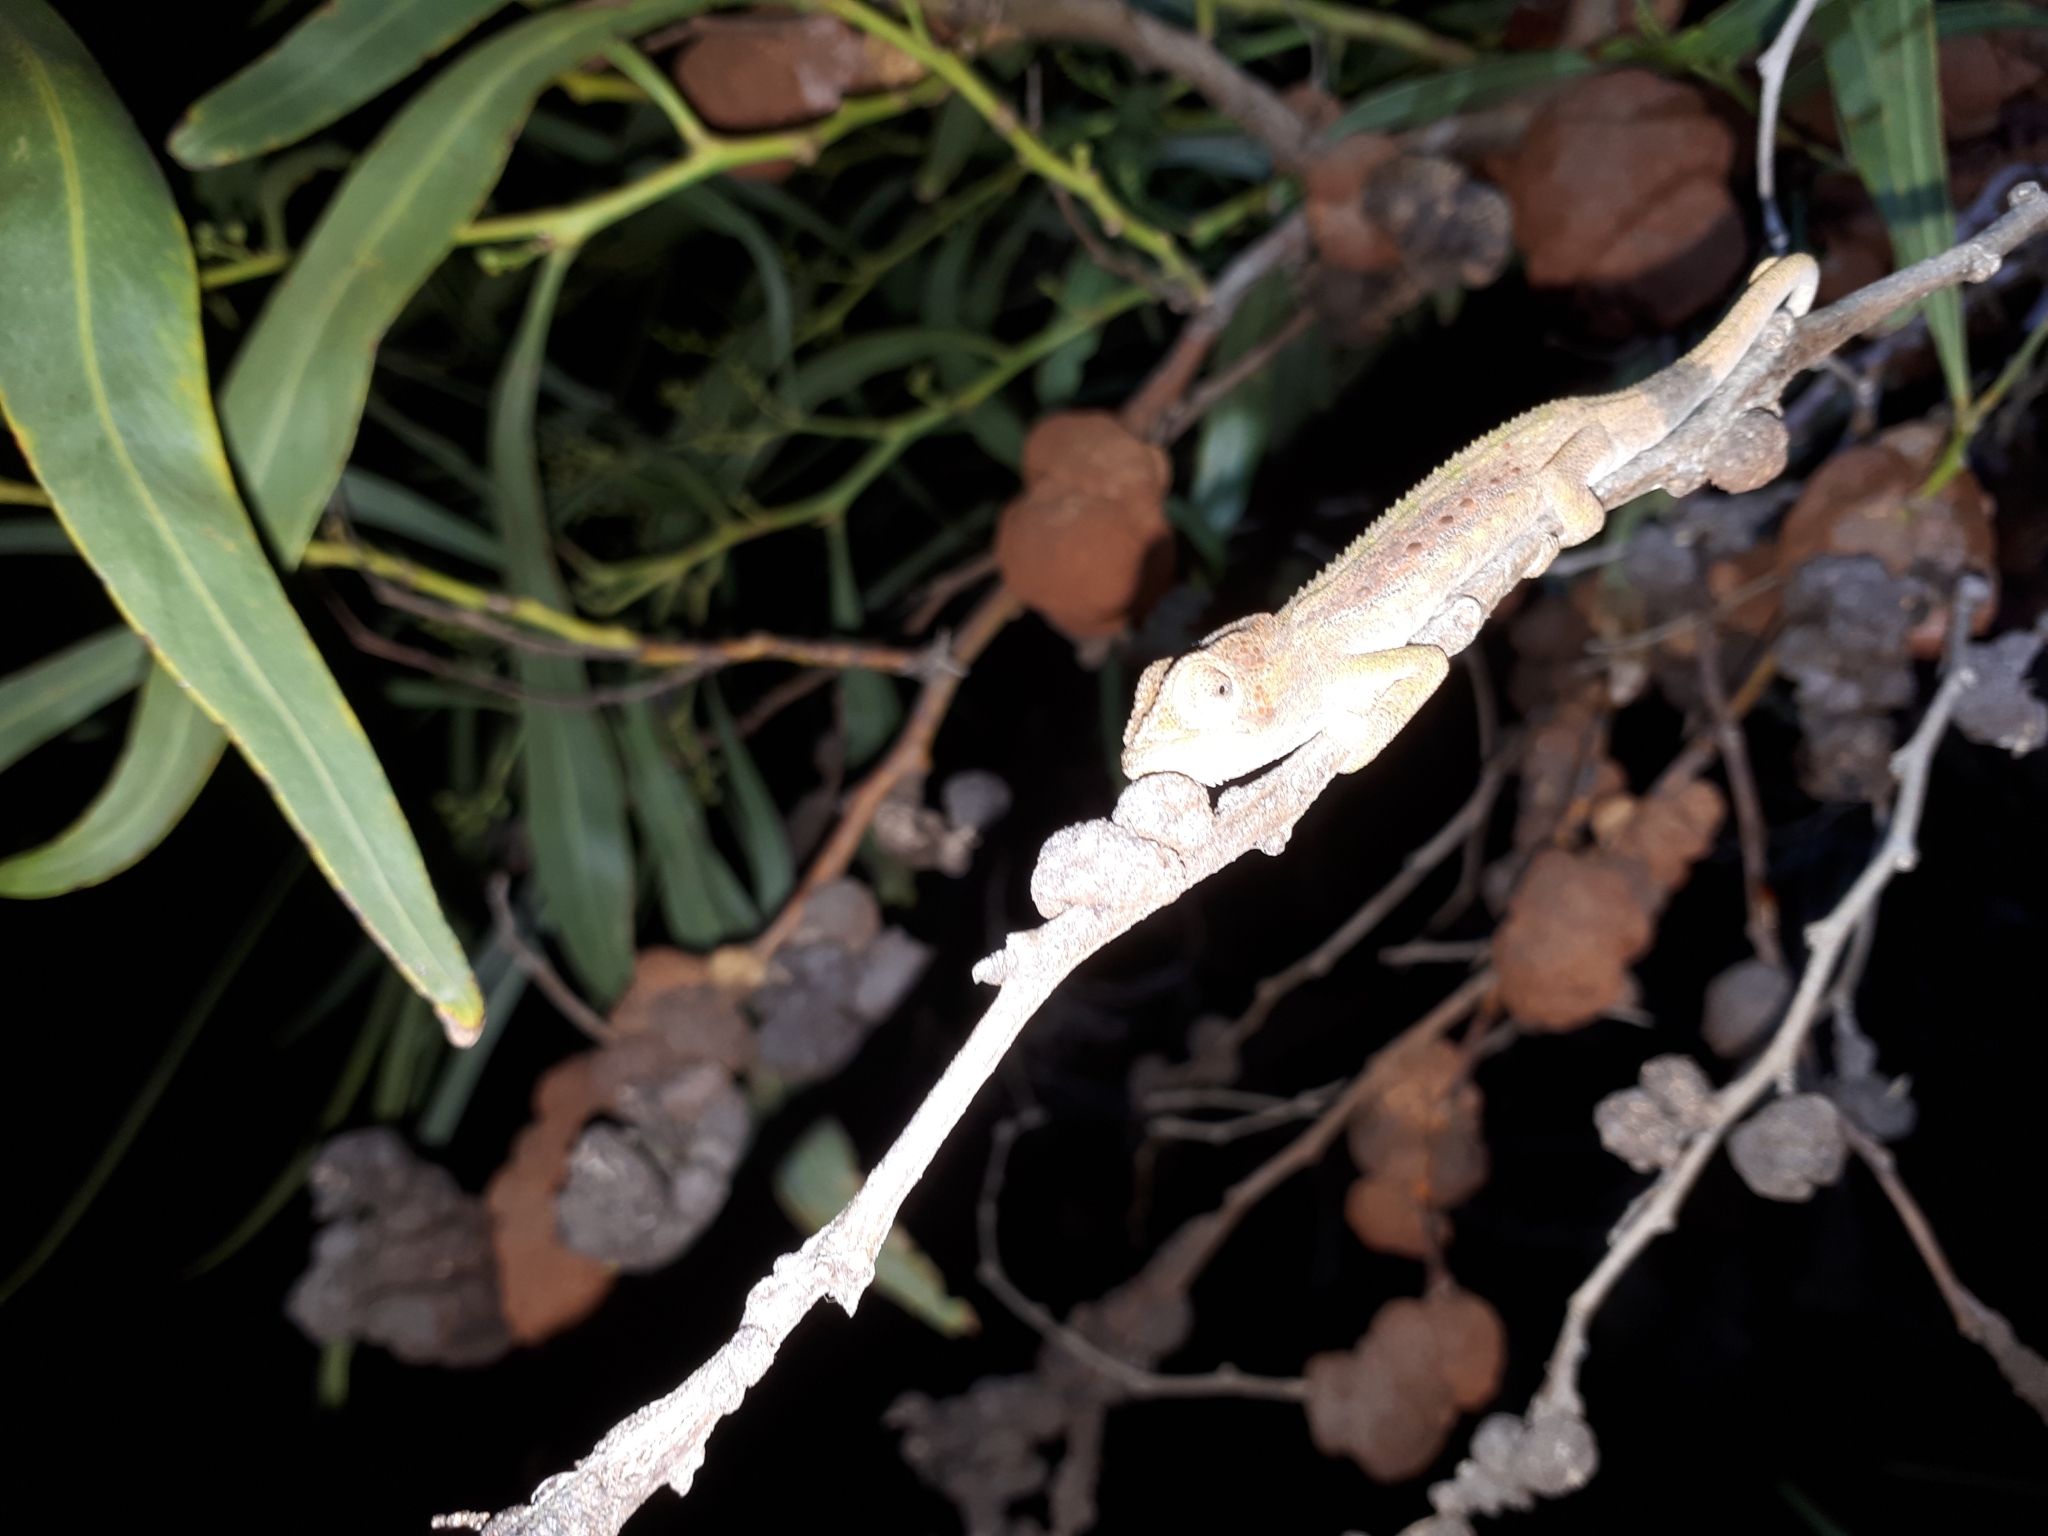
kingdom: Animalia
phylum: Chordata
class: Squamata
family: Chamaeleonidae
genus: Bradypodion
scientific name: Bradypodion pumilum
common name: Cape dwarf chameleon
